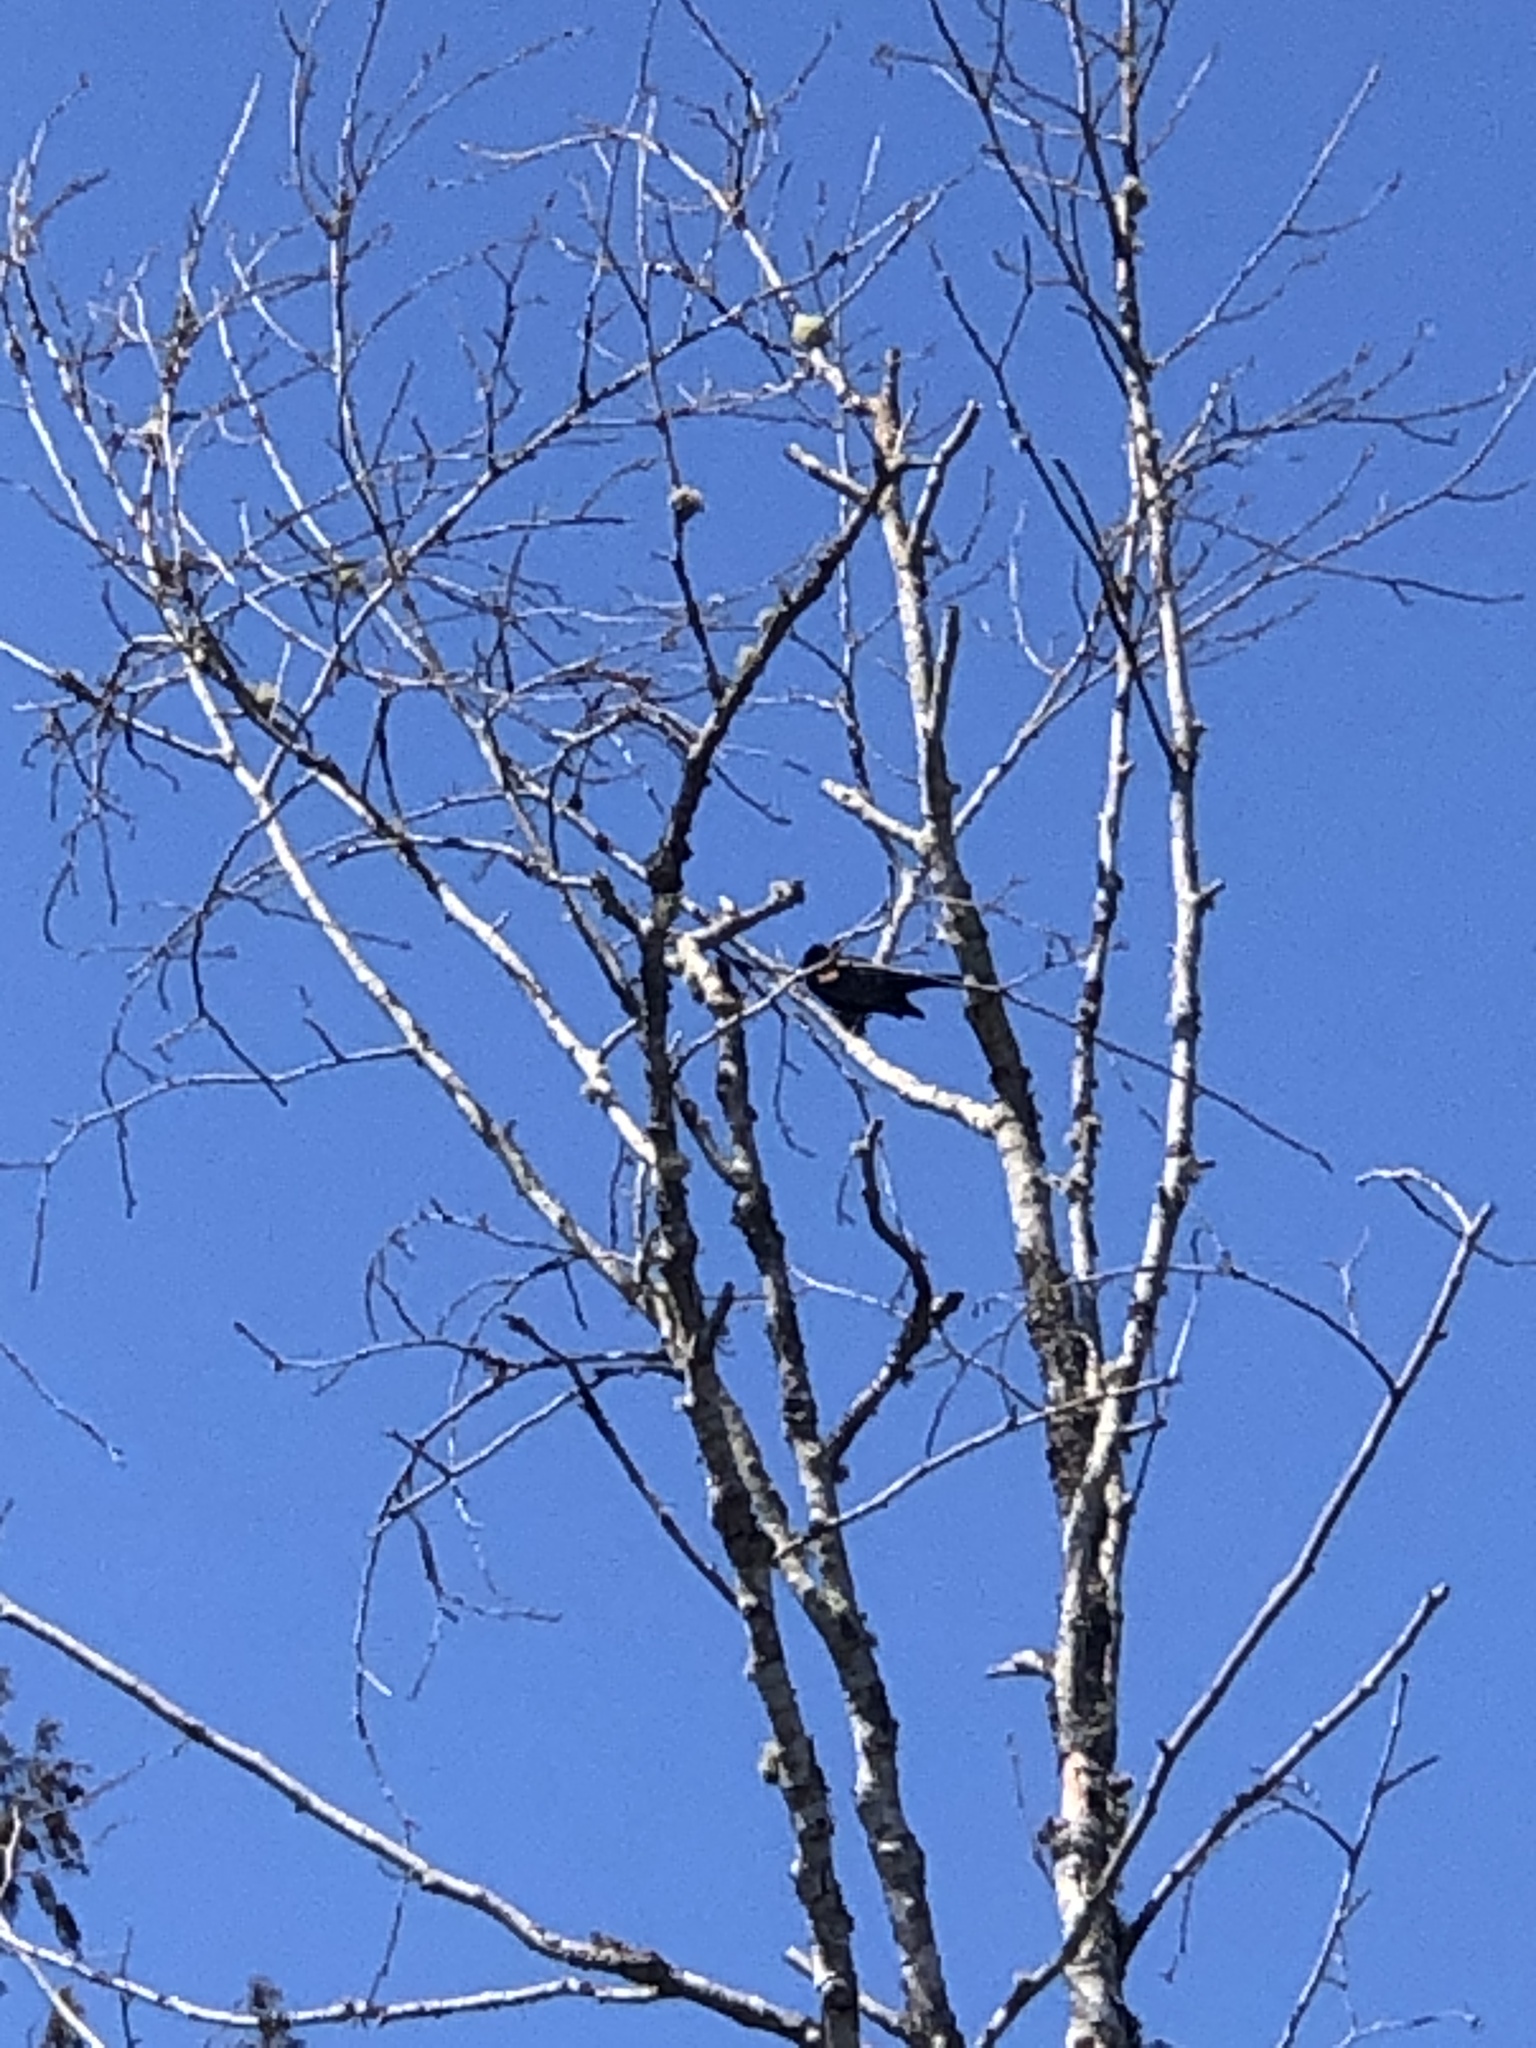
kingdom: Animalia
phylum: Chordata
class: Aves
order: Passeriformes
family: Icteridae
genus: Agelaius
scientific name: Agelaius phoeniceus
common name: Red-winged blackbird
